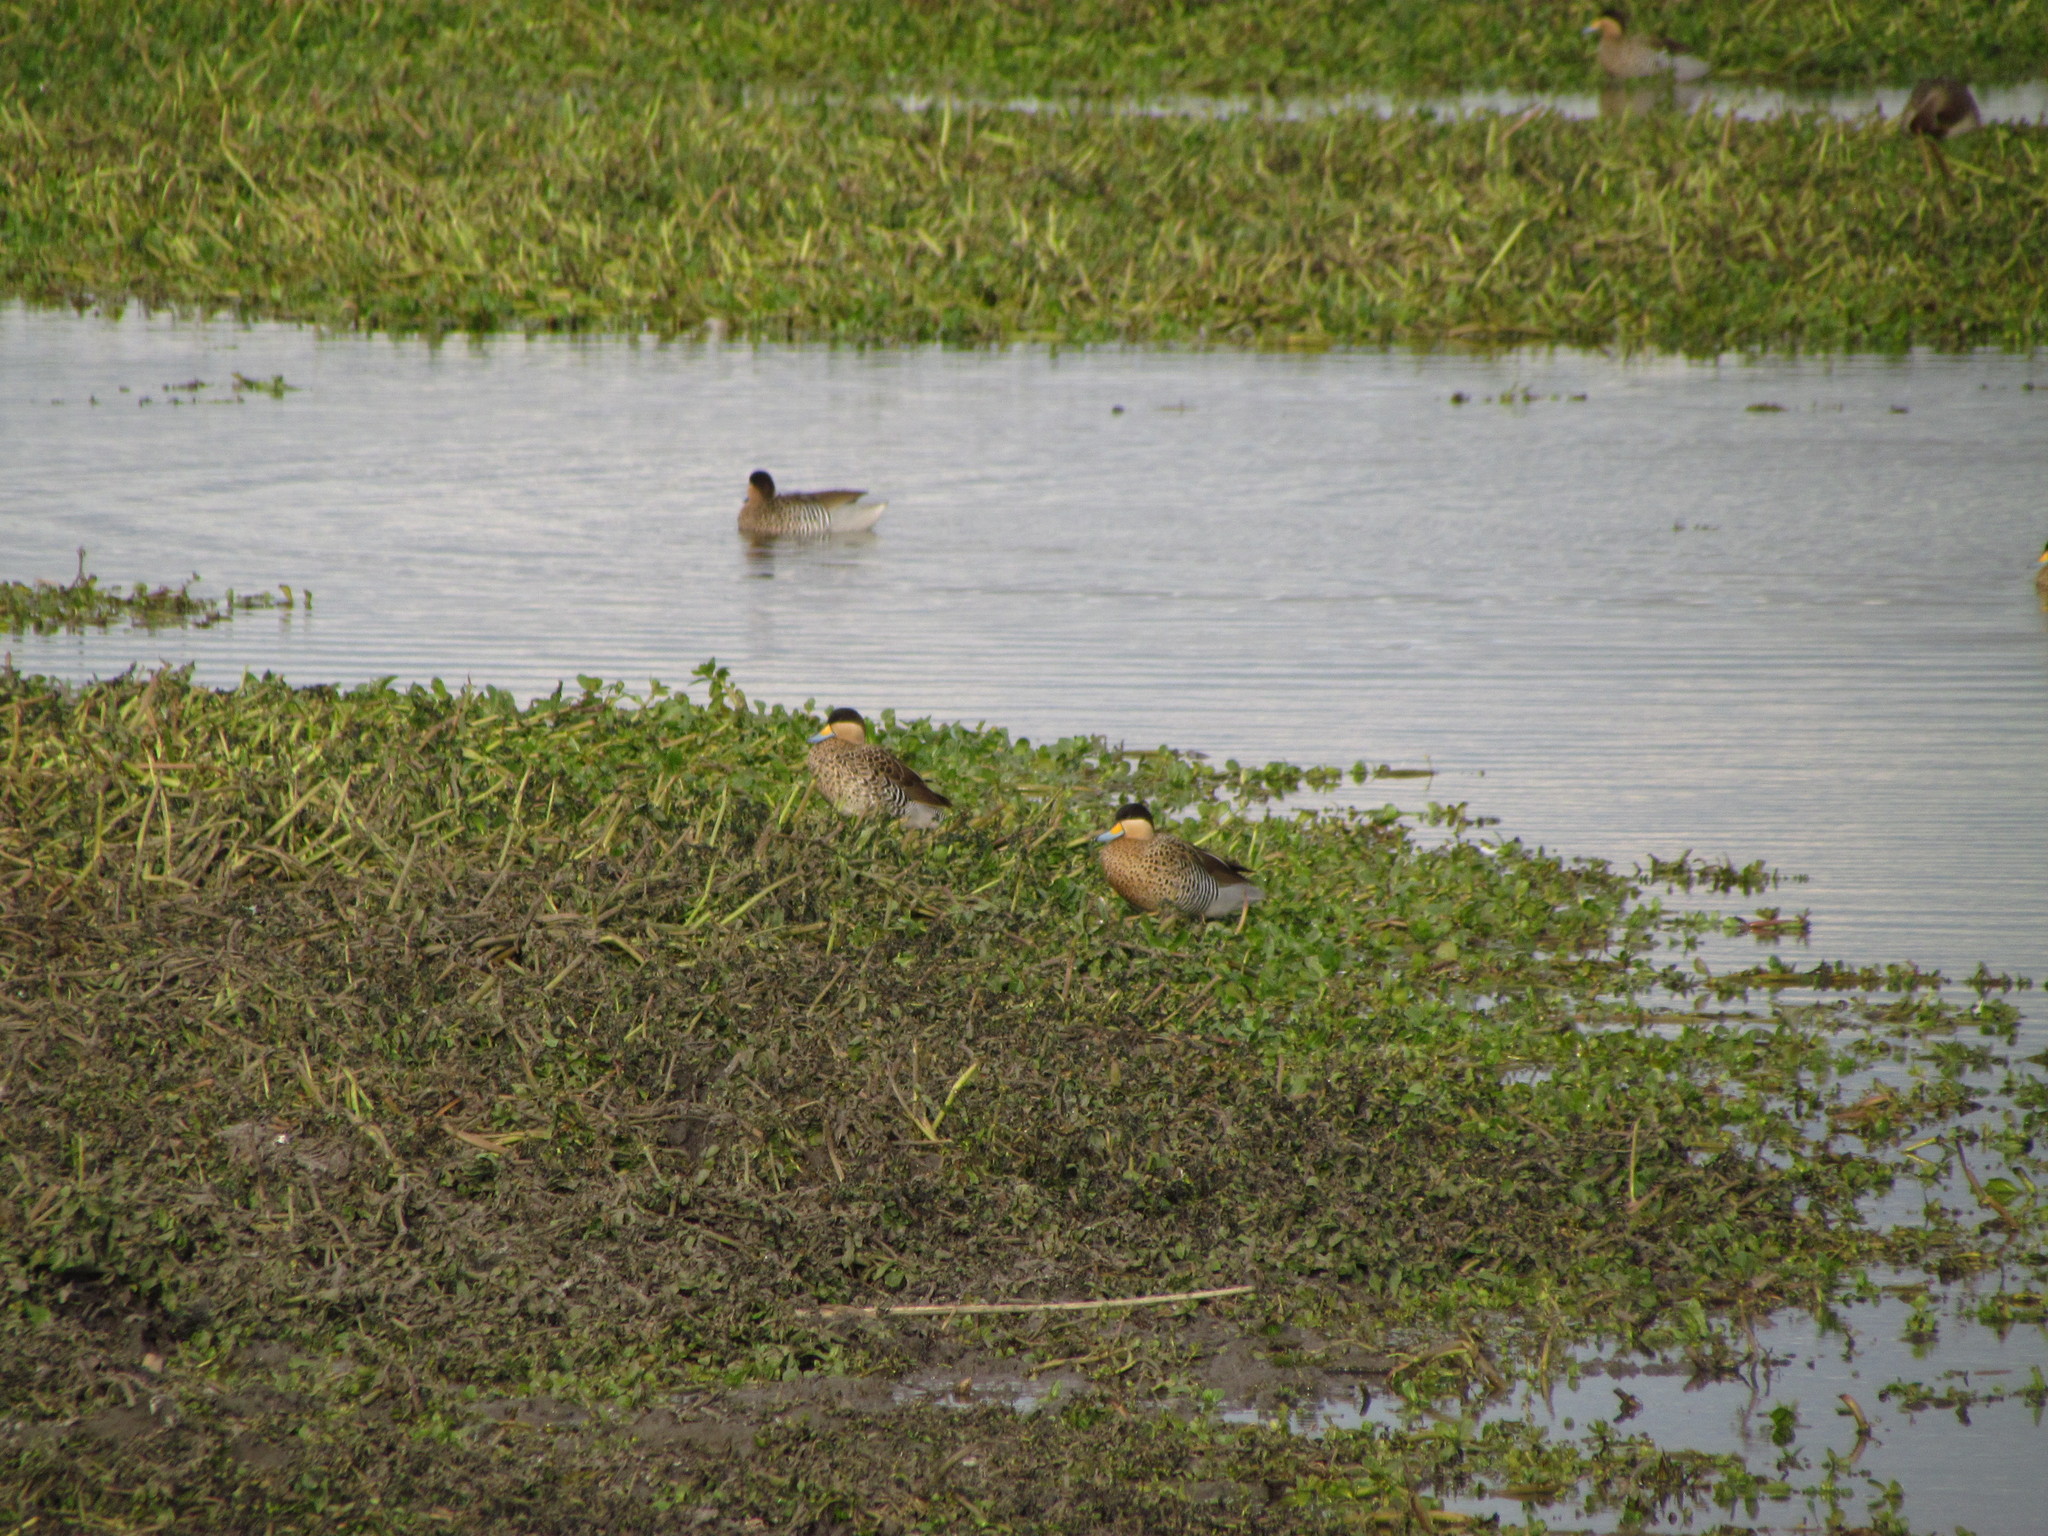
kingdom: Animalia
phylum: Chordata
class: Aves
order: Anseriformes
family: Anatidae
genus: Spatula
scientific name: Spatula versicolor
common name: Silver teal
